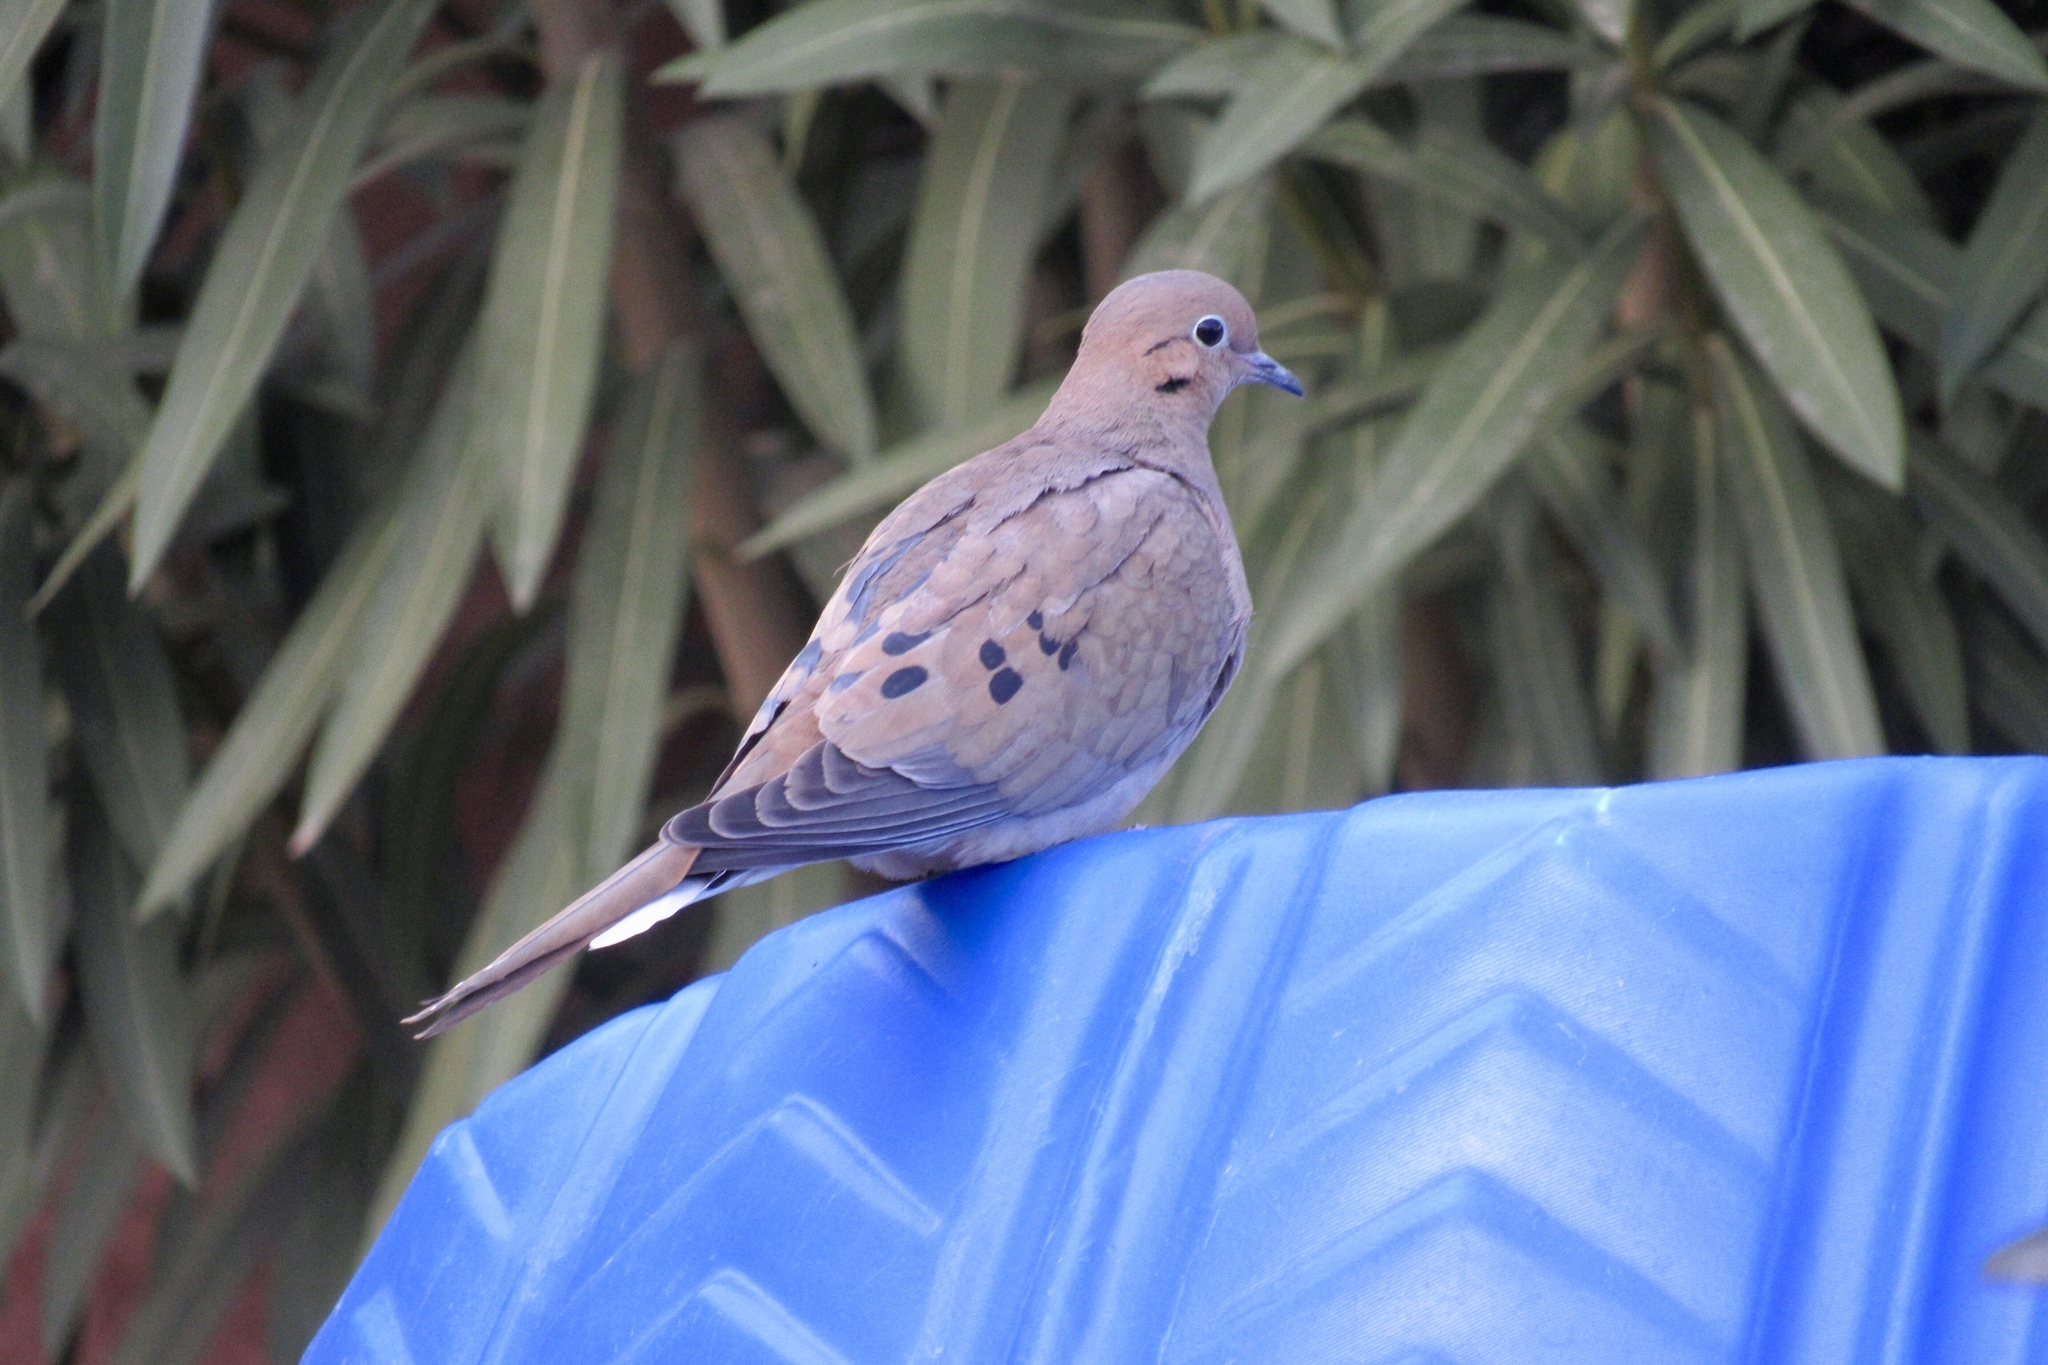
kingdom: Animalia
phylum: Chordata
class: Aves
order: Columbiformes
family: Columbidae
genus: Zenaida
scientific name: Zenaida macroura
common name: Mourning dove
